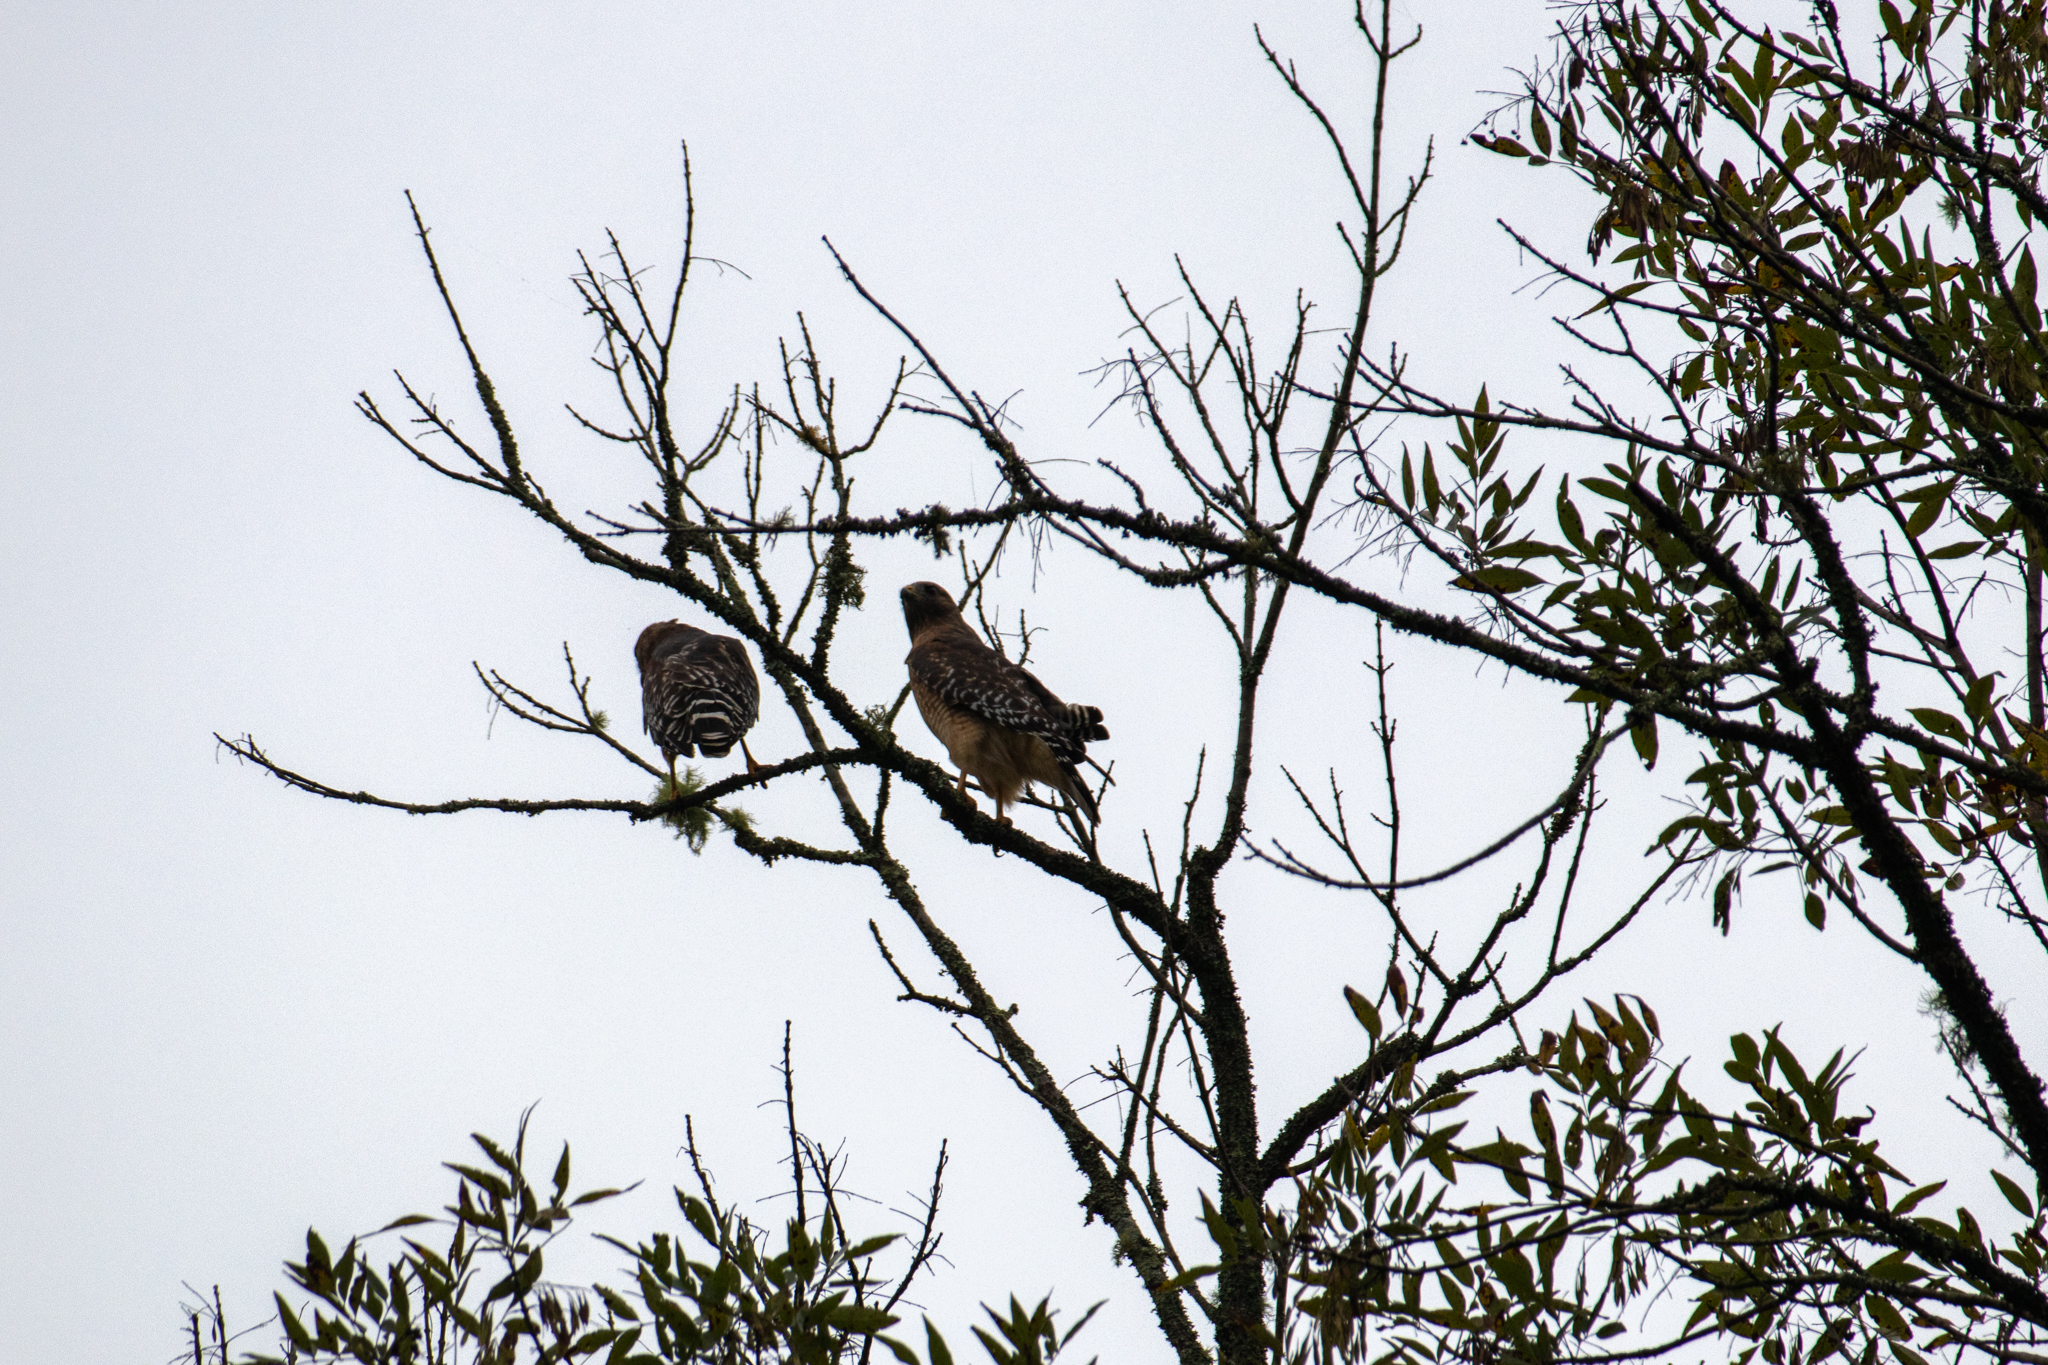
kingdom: Animalia
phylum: Chordata
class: Aves
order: Accipitriformes
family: Accipitridae
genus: Buteo
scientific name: Buteo lineatus
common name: Red-shouldered hawk
